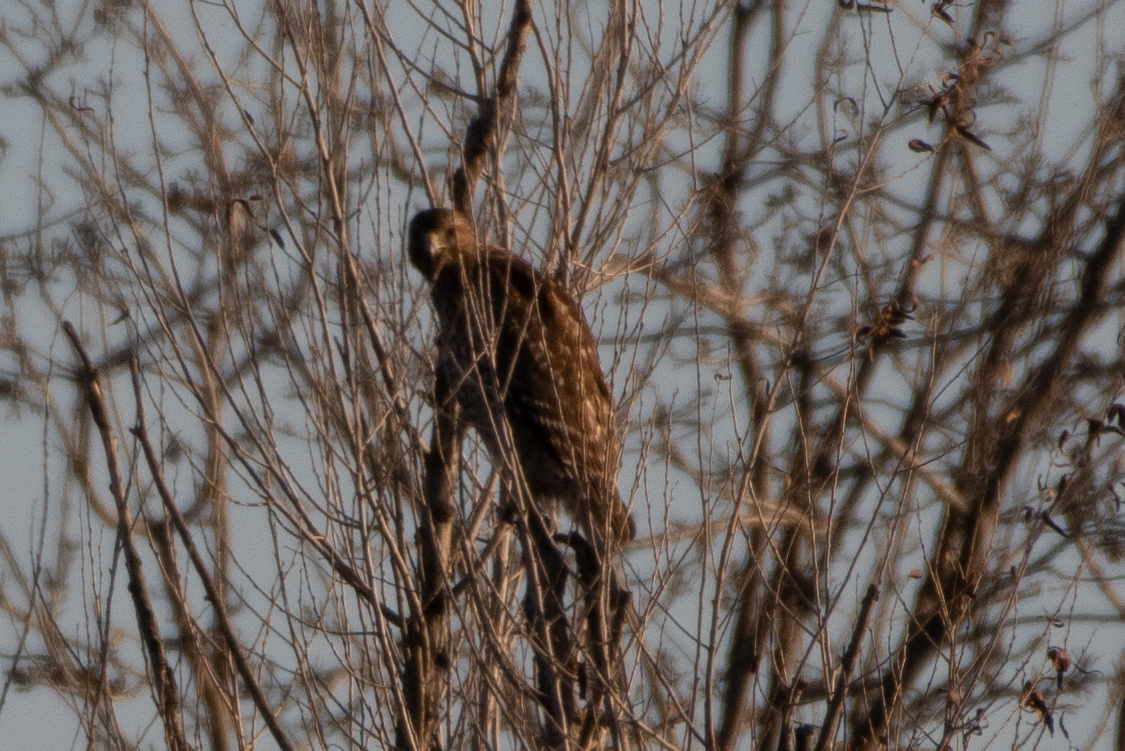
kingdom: Animalia
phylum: Chordata
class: Aves
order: Accipitriformes
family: Accipitridae
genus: Buteo
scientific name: Buteo lineatus
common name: Red-shouldered hawk
